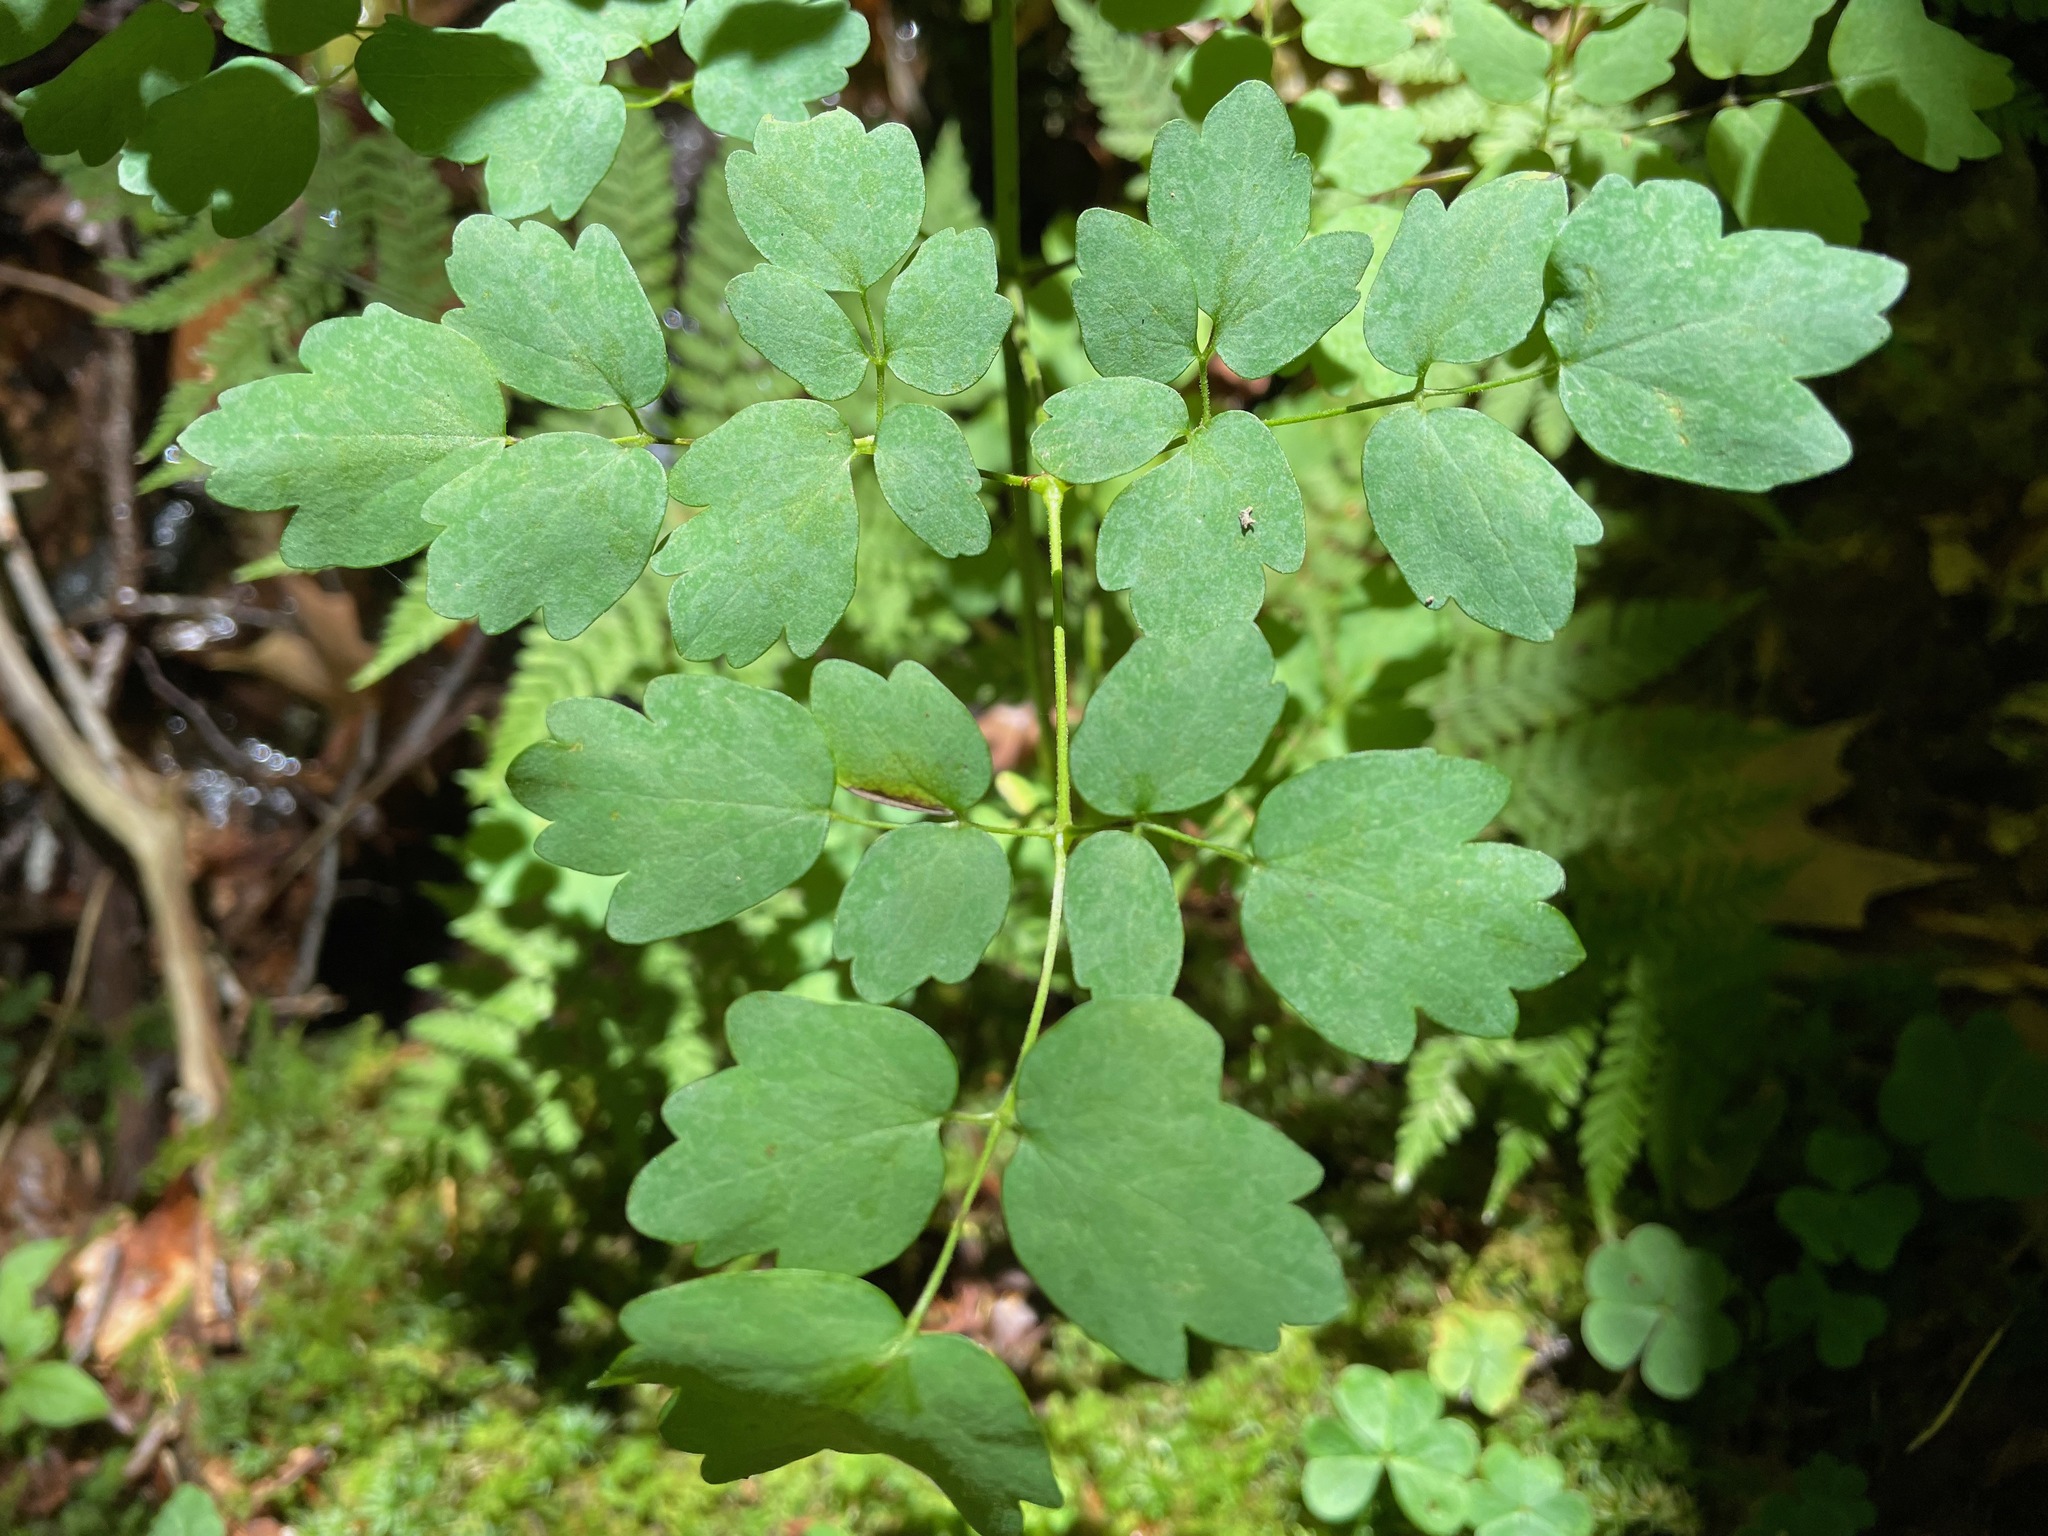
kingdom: Plantae
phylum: Tracheophyta
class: Magnoliopsida
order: Ranunculales
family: Ranunculaceae
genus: Thalictrum
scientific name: Thalictrum pubescens
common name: King-of-the-meadow
